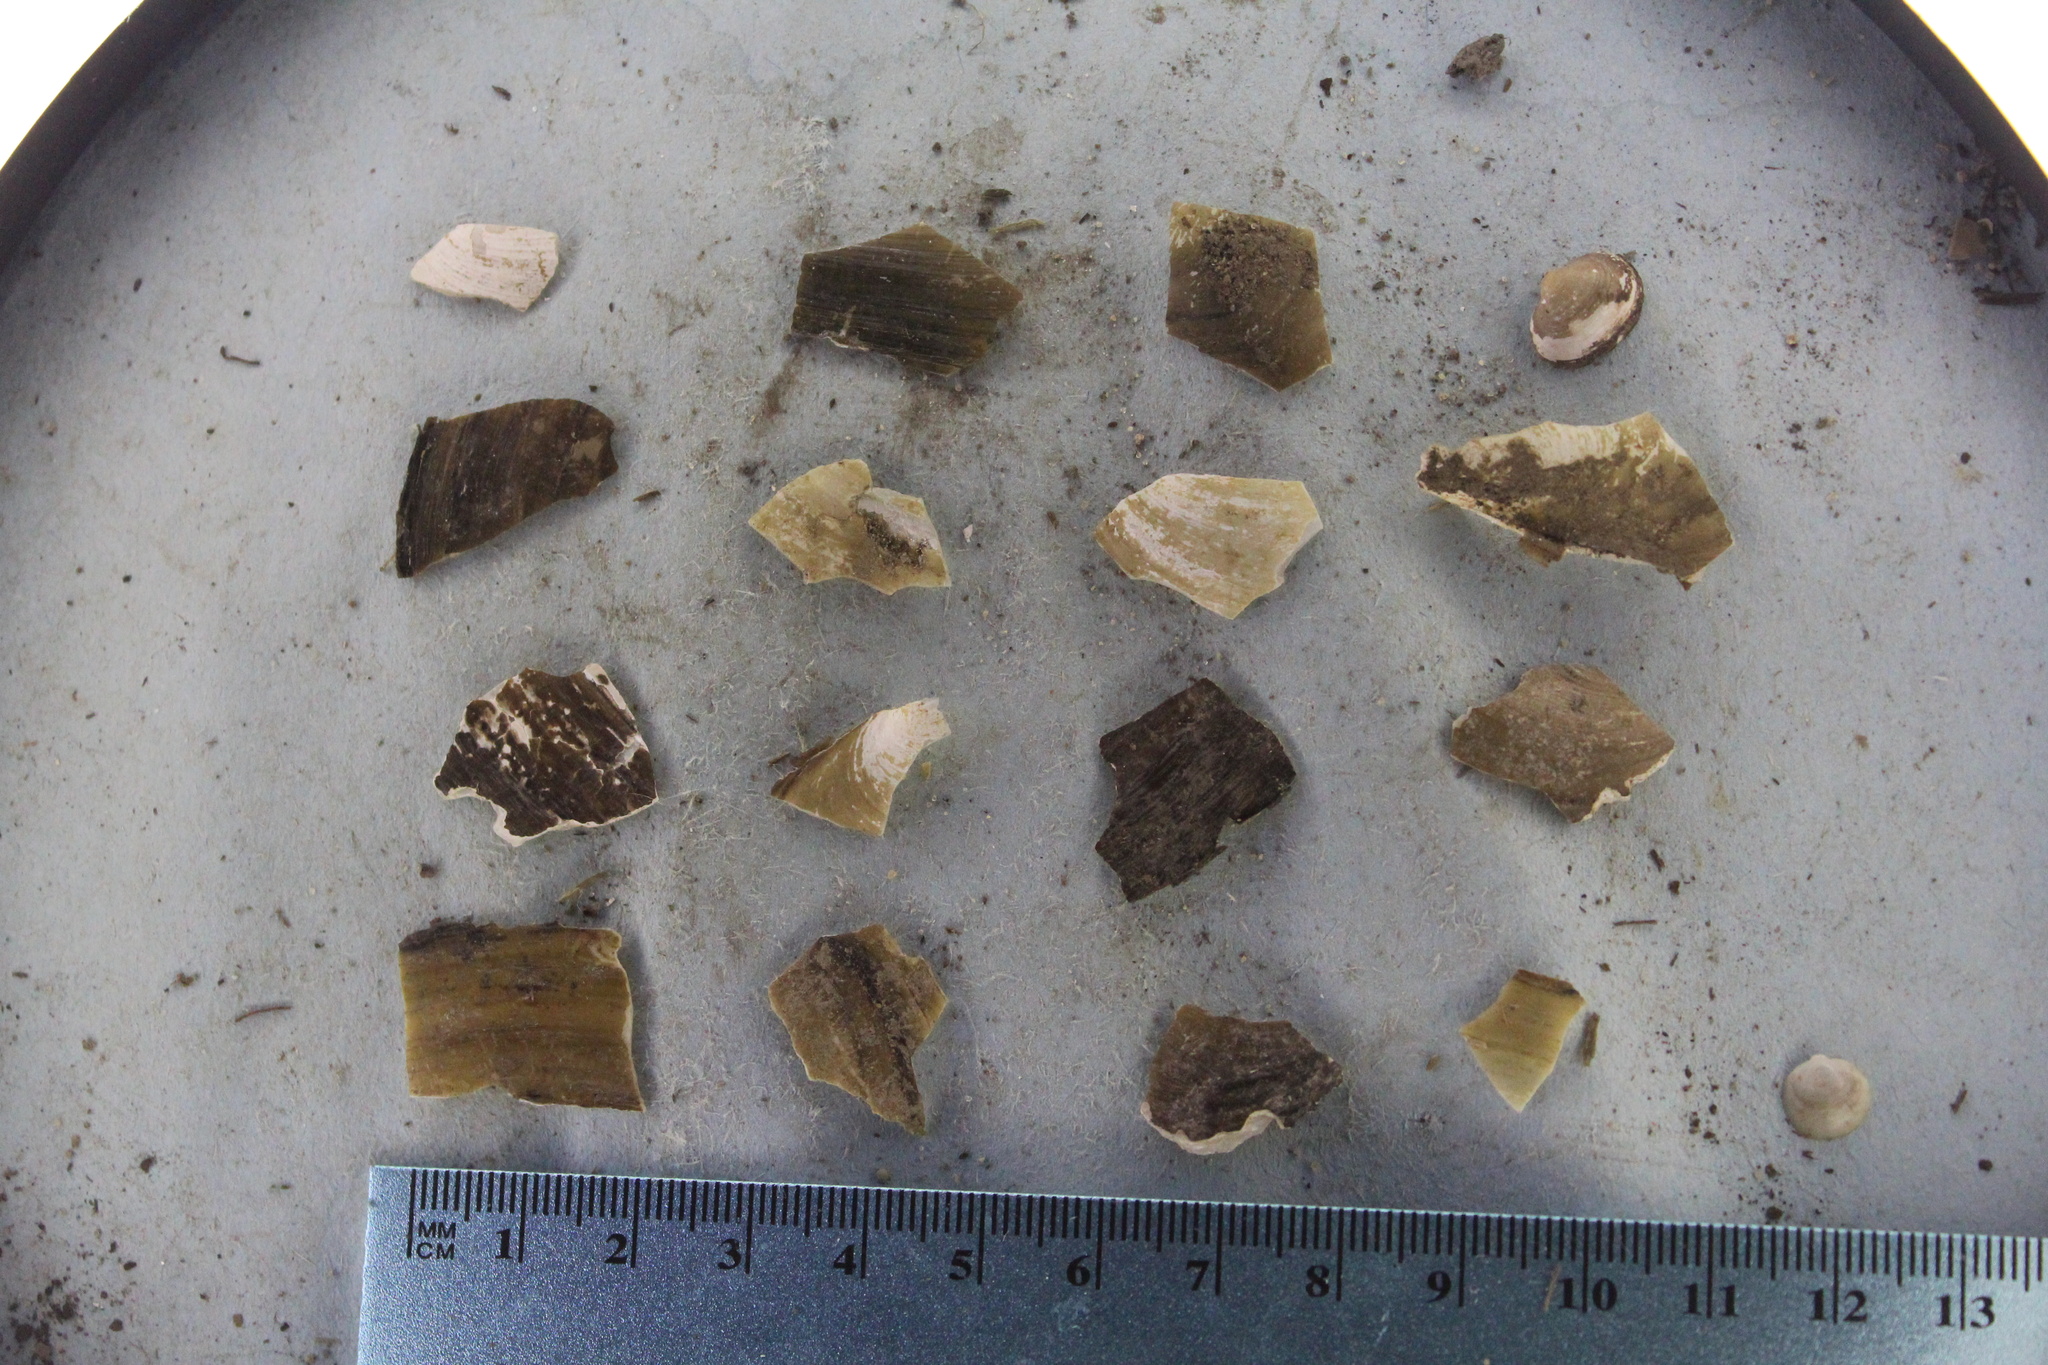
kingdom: Animalia
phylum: Mollusca
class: Bivalvia
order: Unionida
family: Unionidae
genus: Pyganodon
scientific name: Pyganodon grandis
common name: Giant floater
